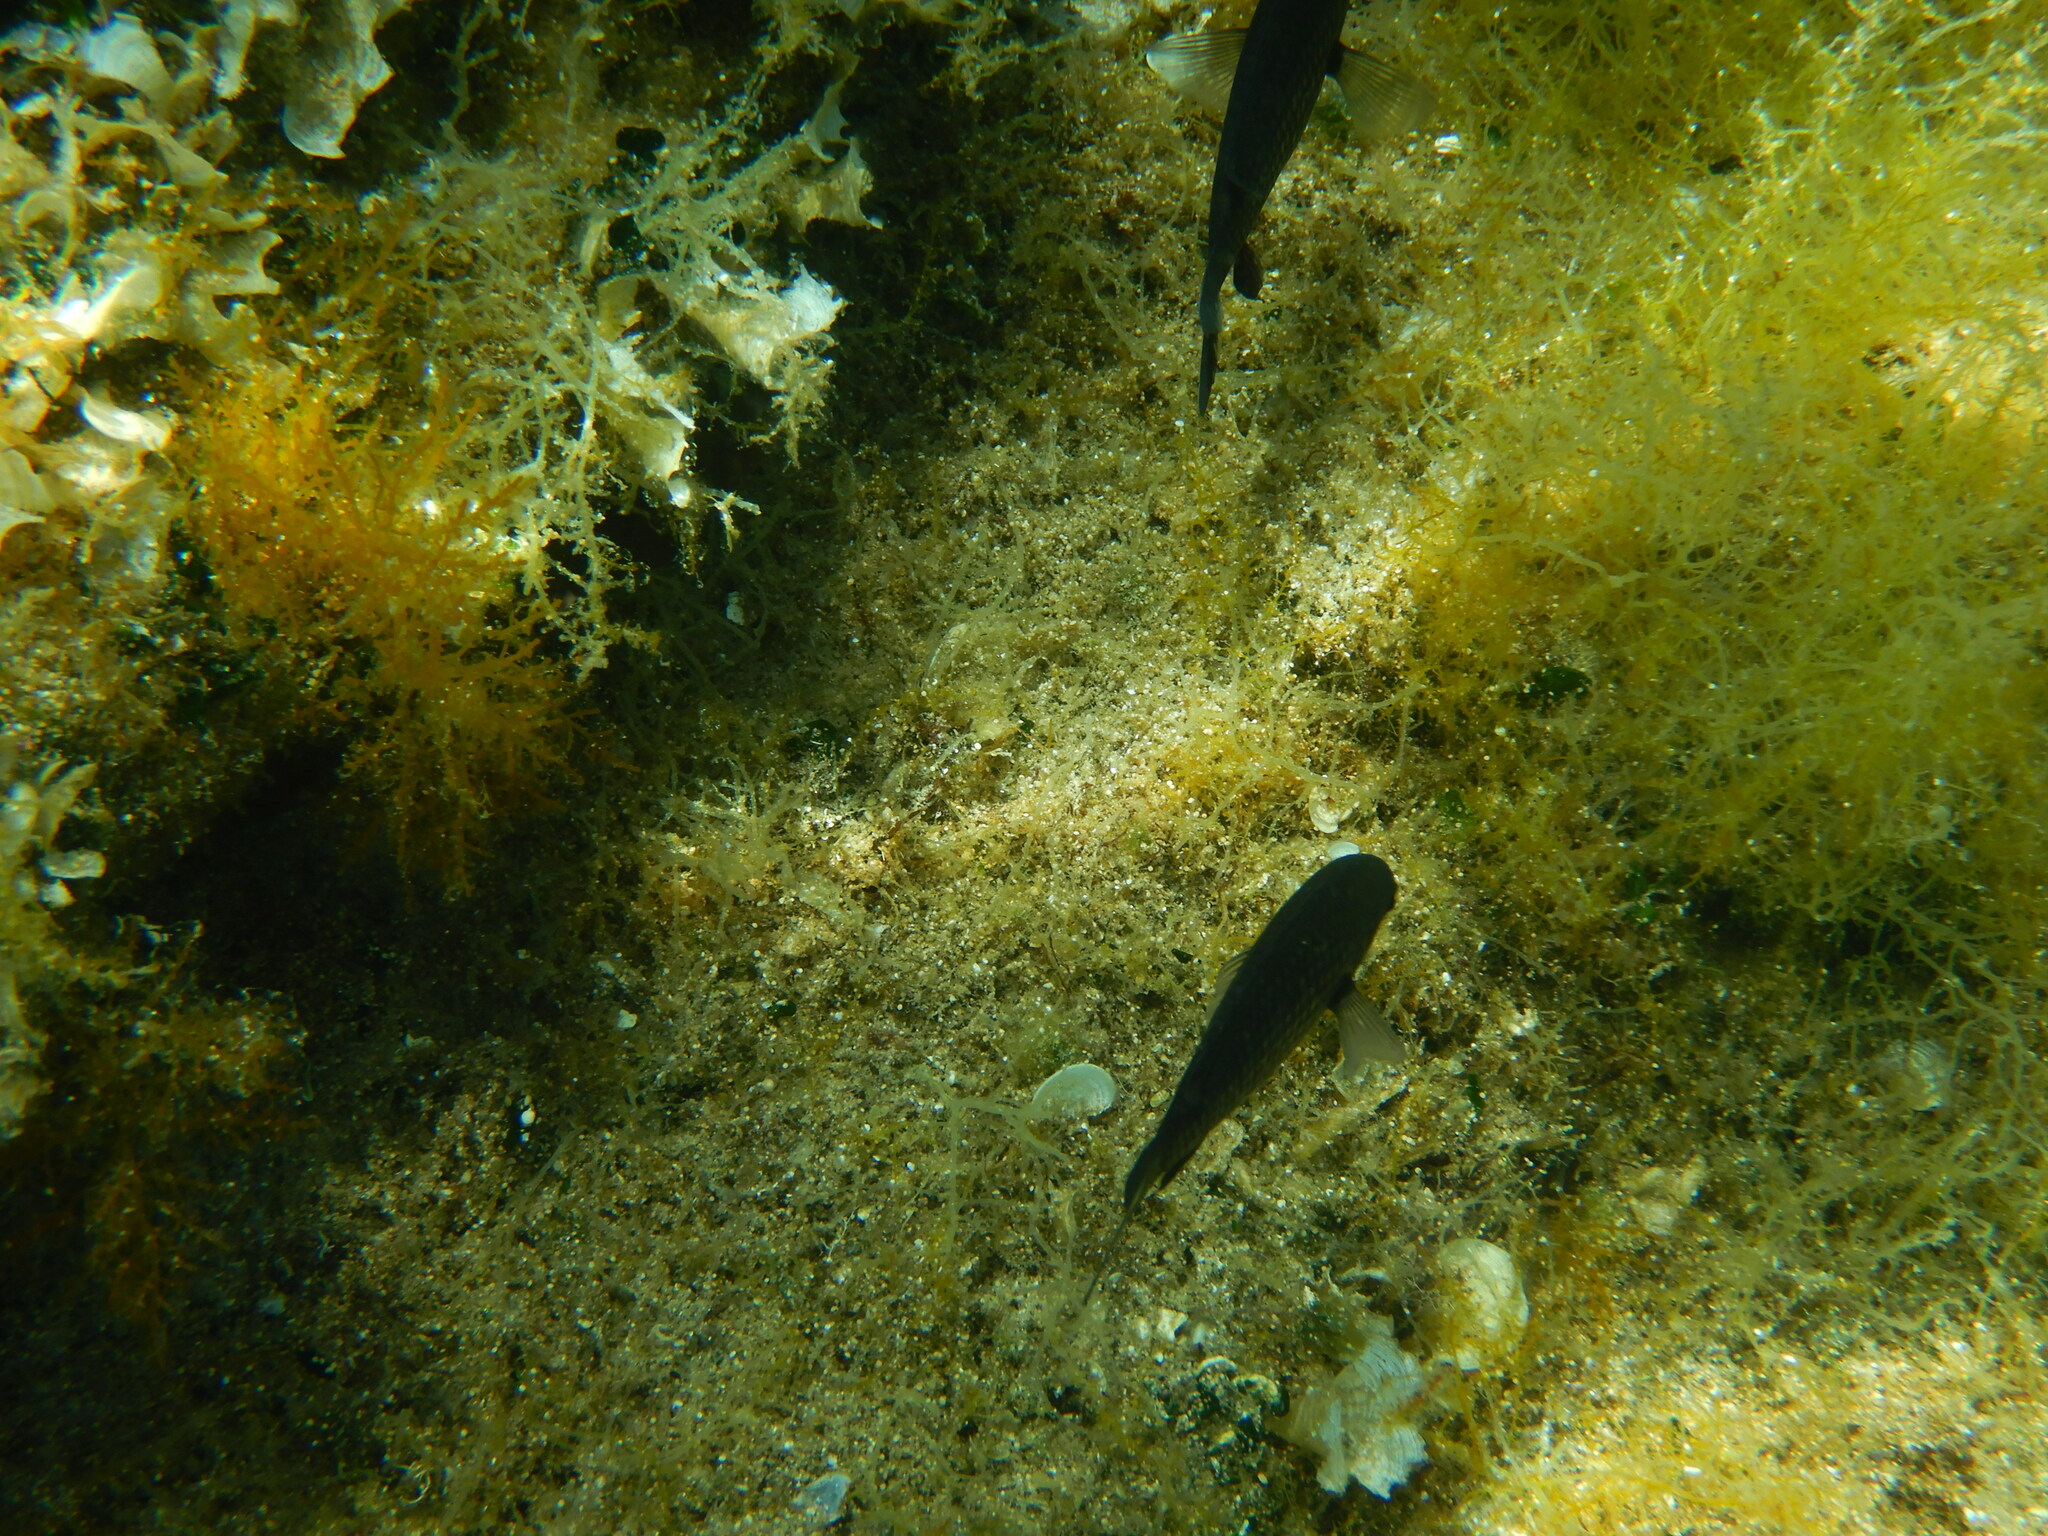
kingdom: Animalia
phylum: Chordata
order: Perciformes
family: Pomacentridae
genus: Chromis
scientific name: Chromis chromis
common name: Damselfish
